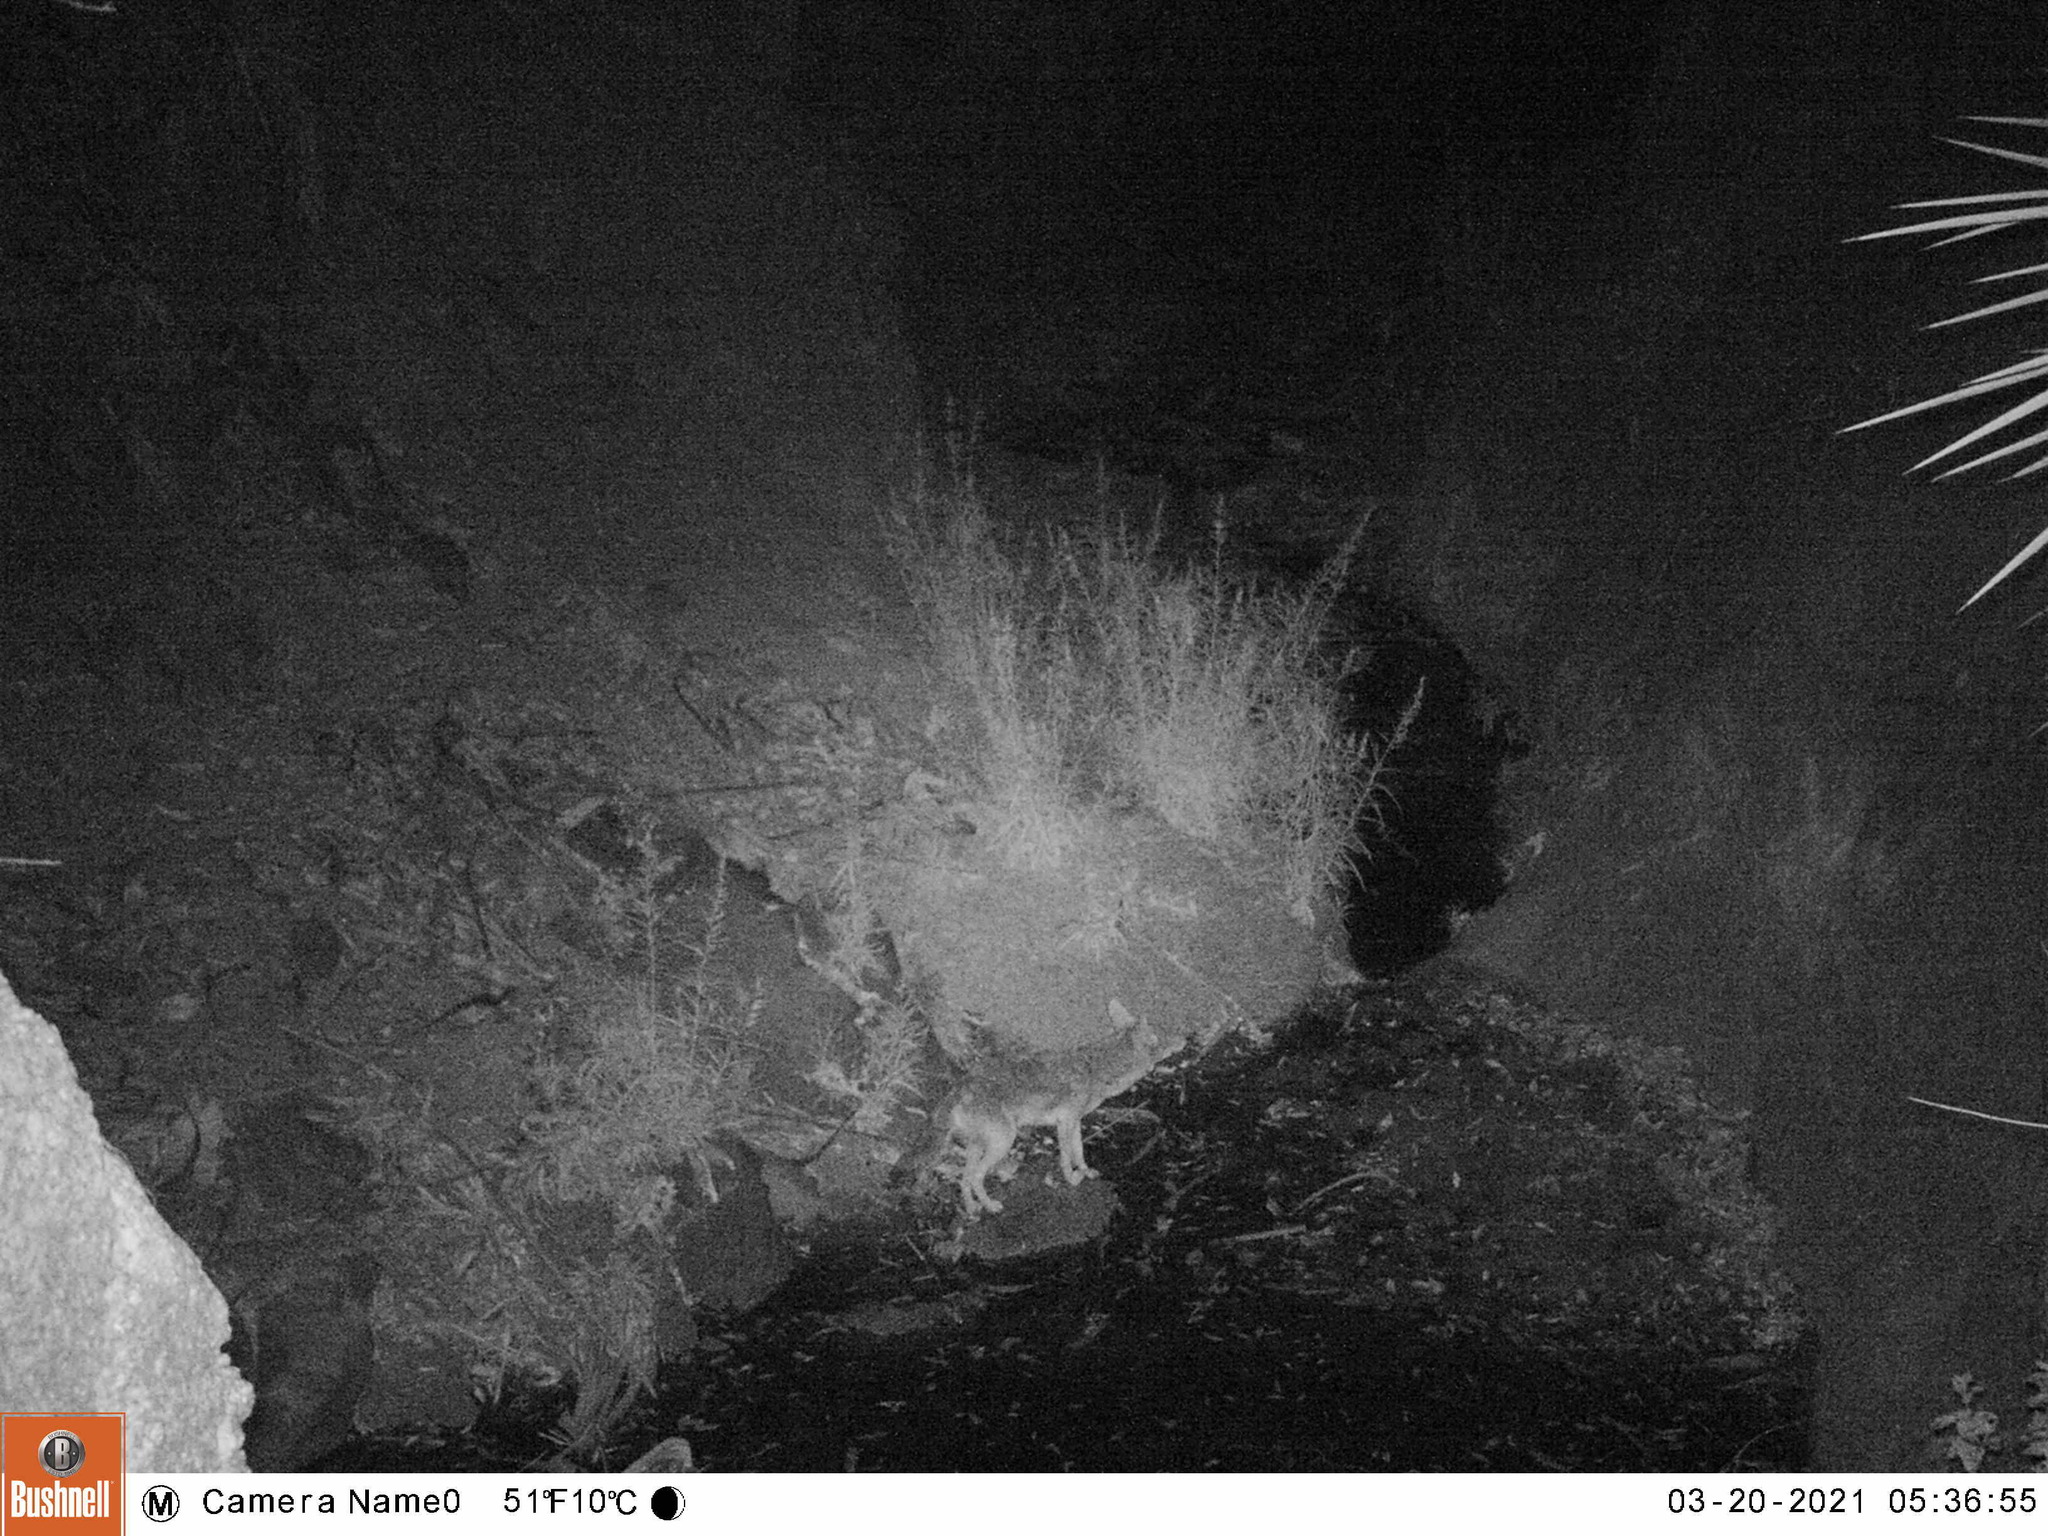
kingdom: Animalia
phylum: Chordata
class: Mammalia
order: Carnivora
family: Canidae
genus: Canis
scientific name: Canis latrans
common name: Coyote
